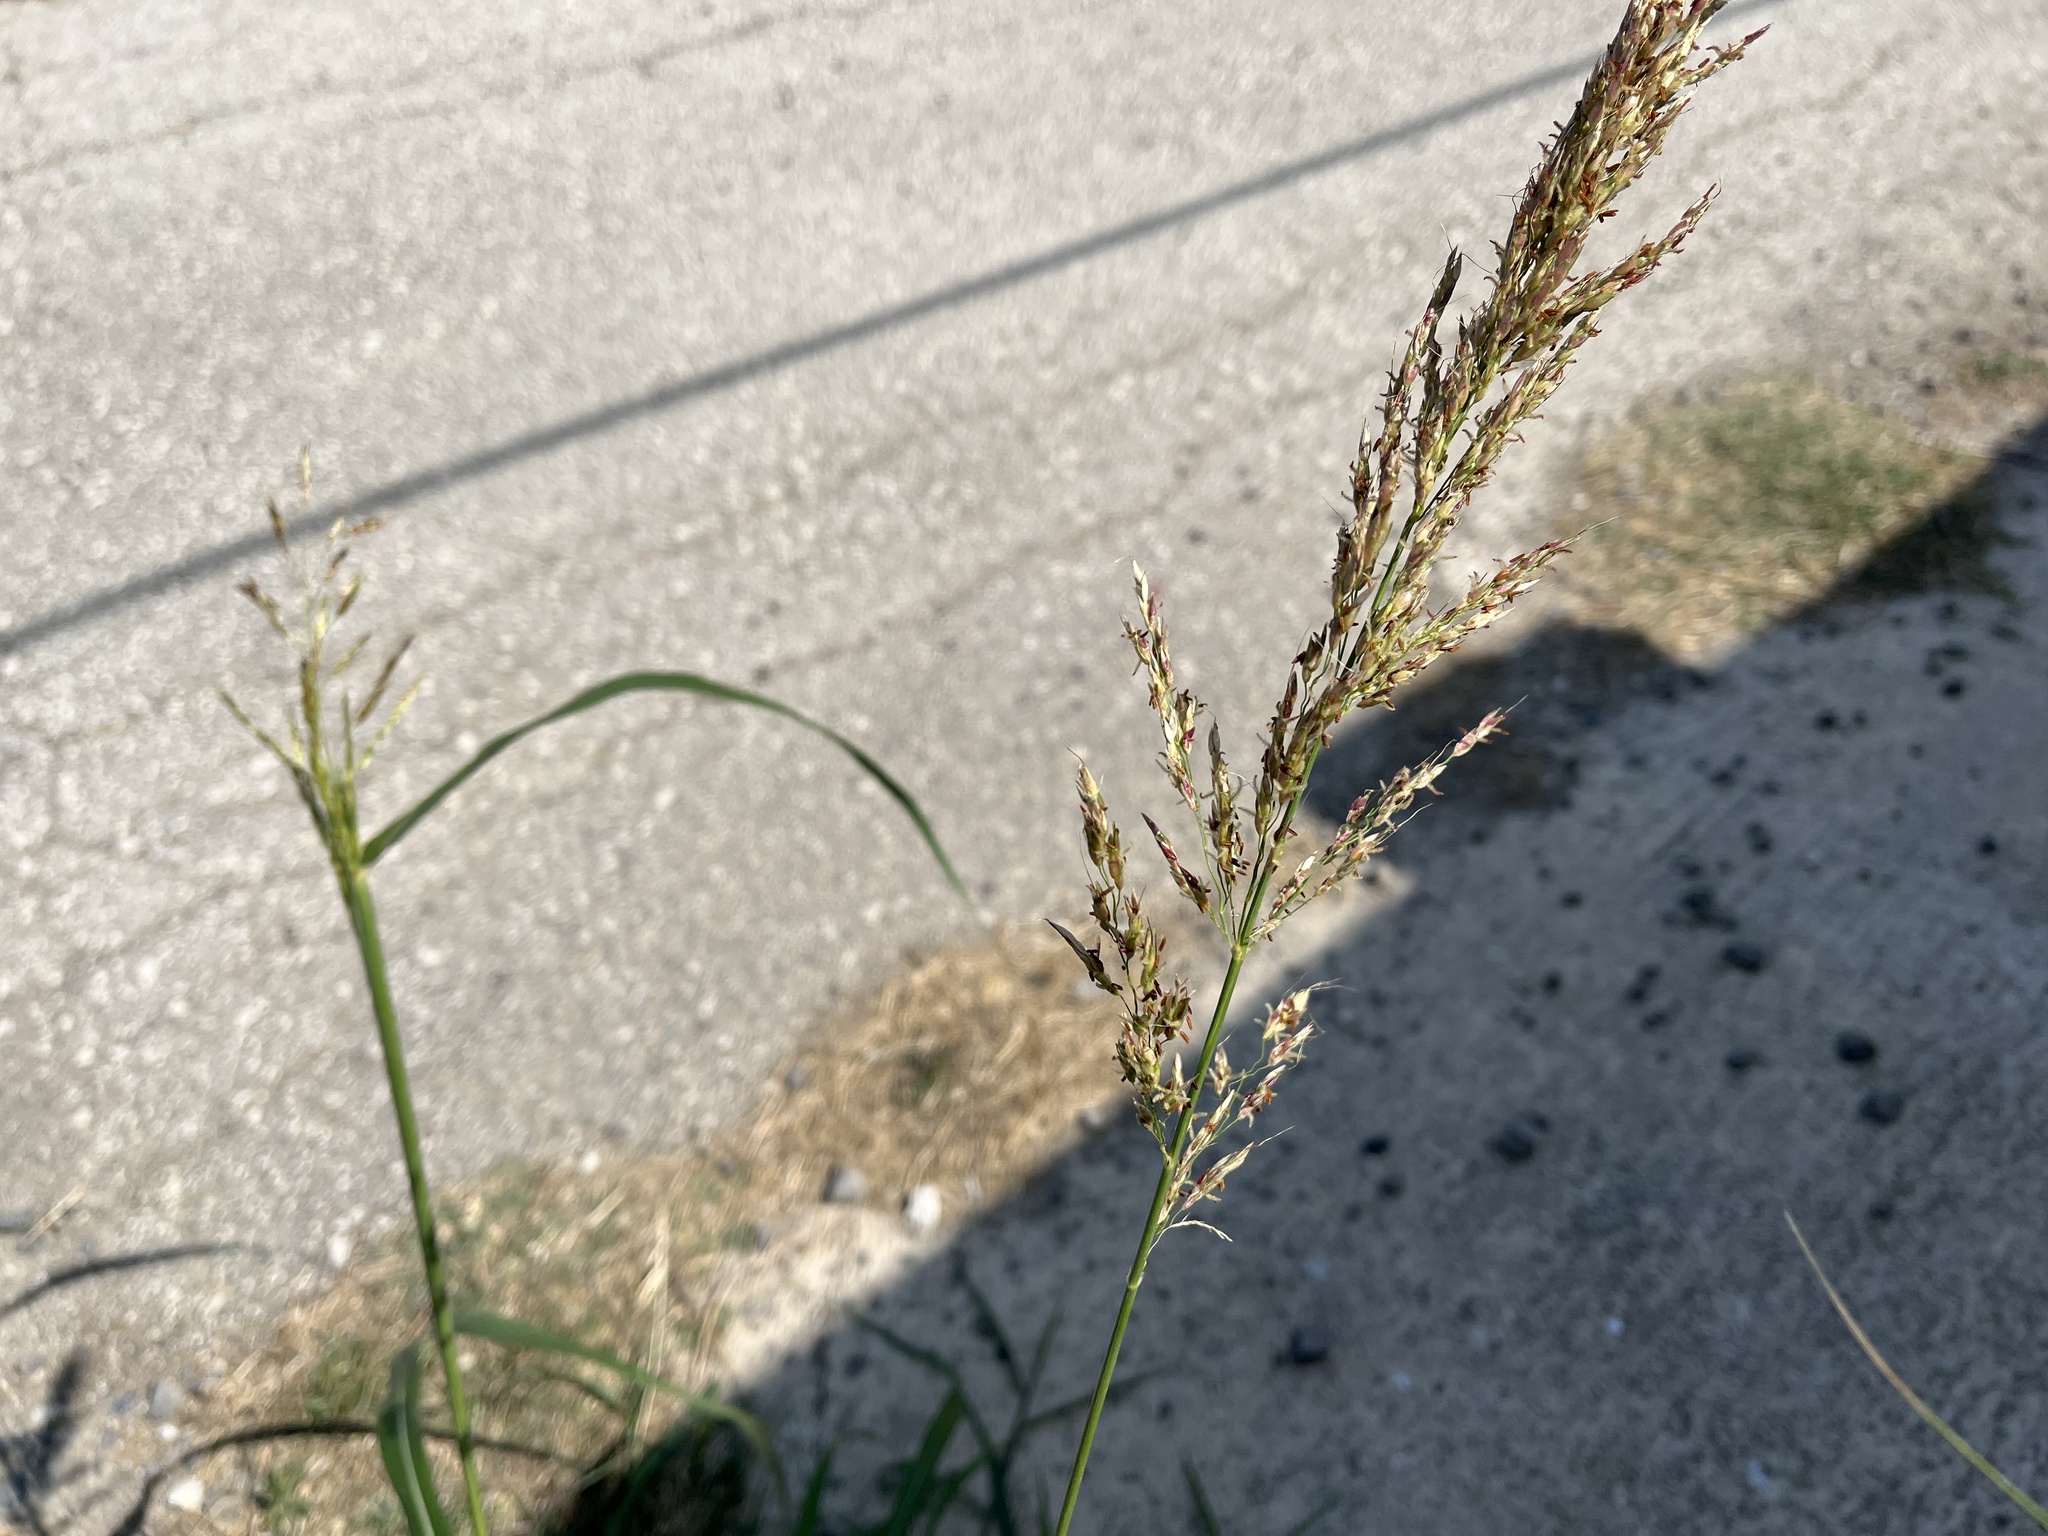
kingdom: Plantae
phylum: Tracheophyta
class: Liliopsida
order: Poales
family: Poaceae
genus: Sorghum
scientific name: Sorghum halepense
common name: Johnson-grass
